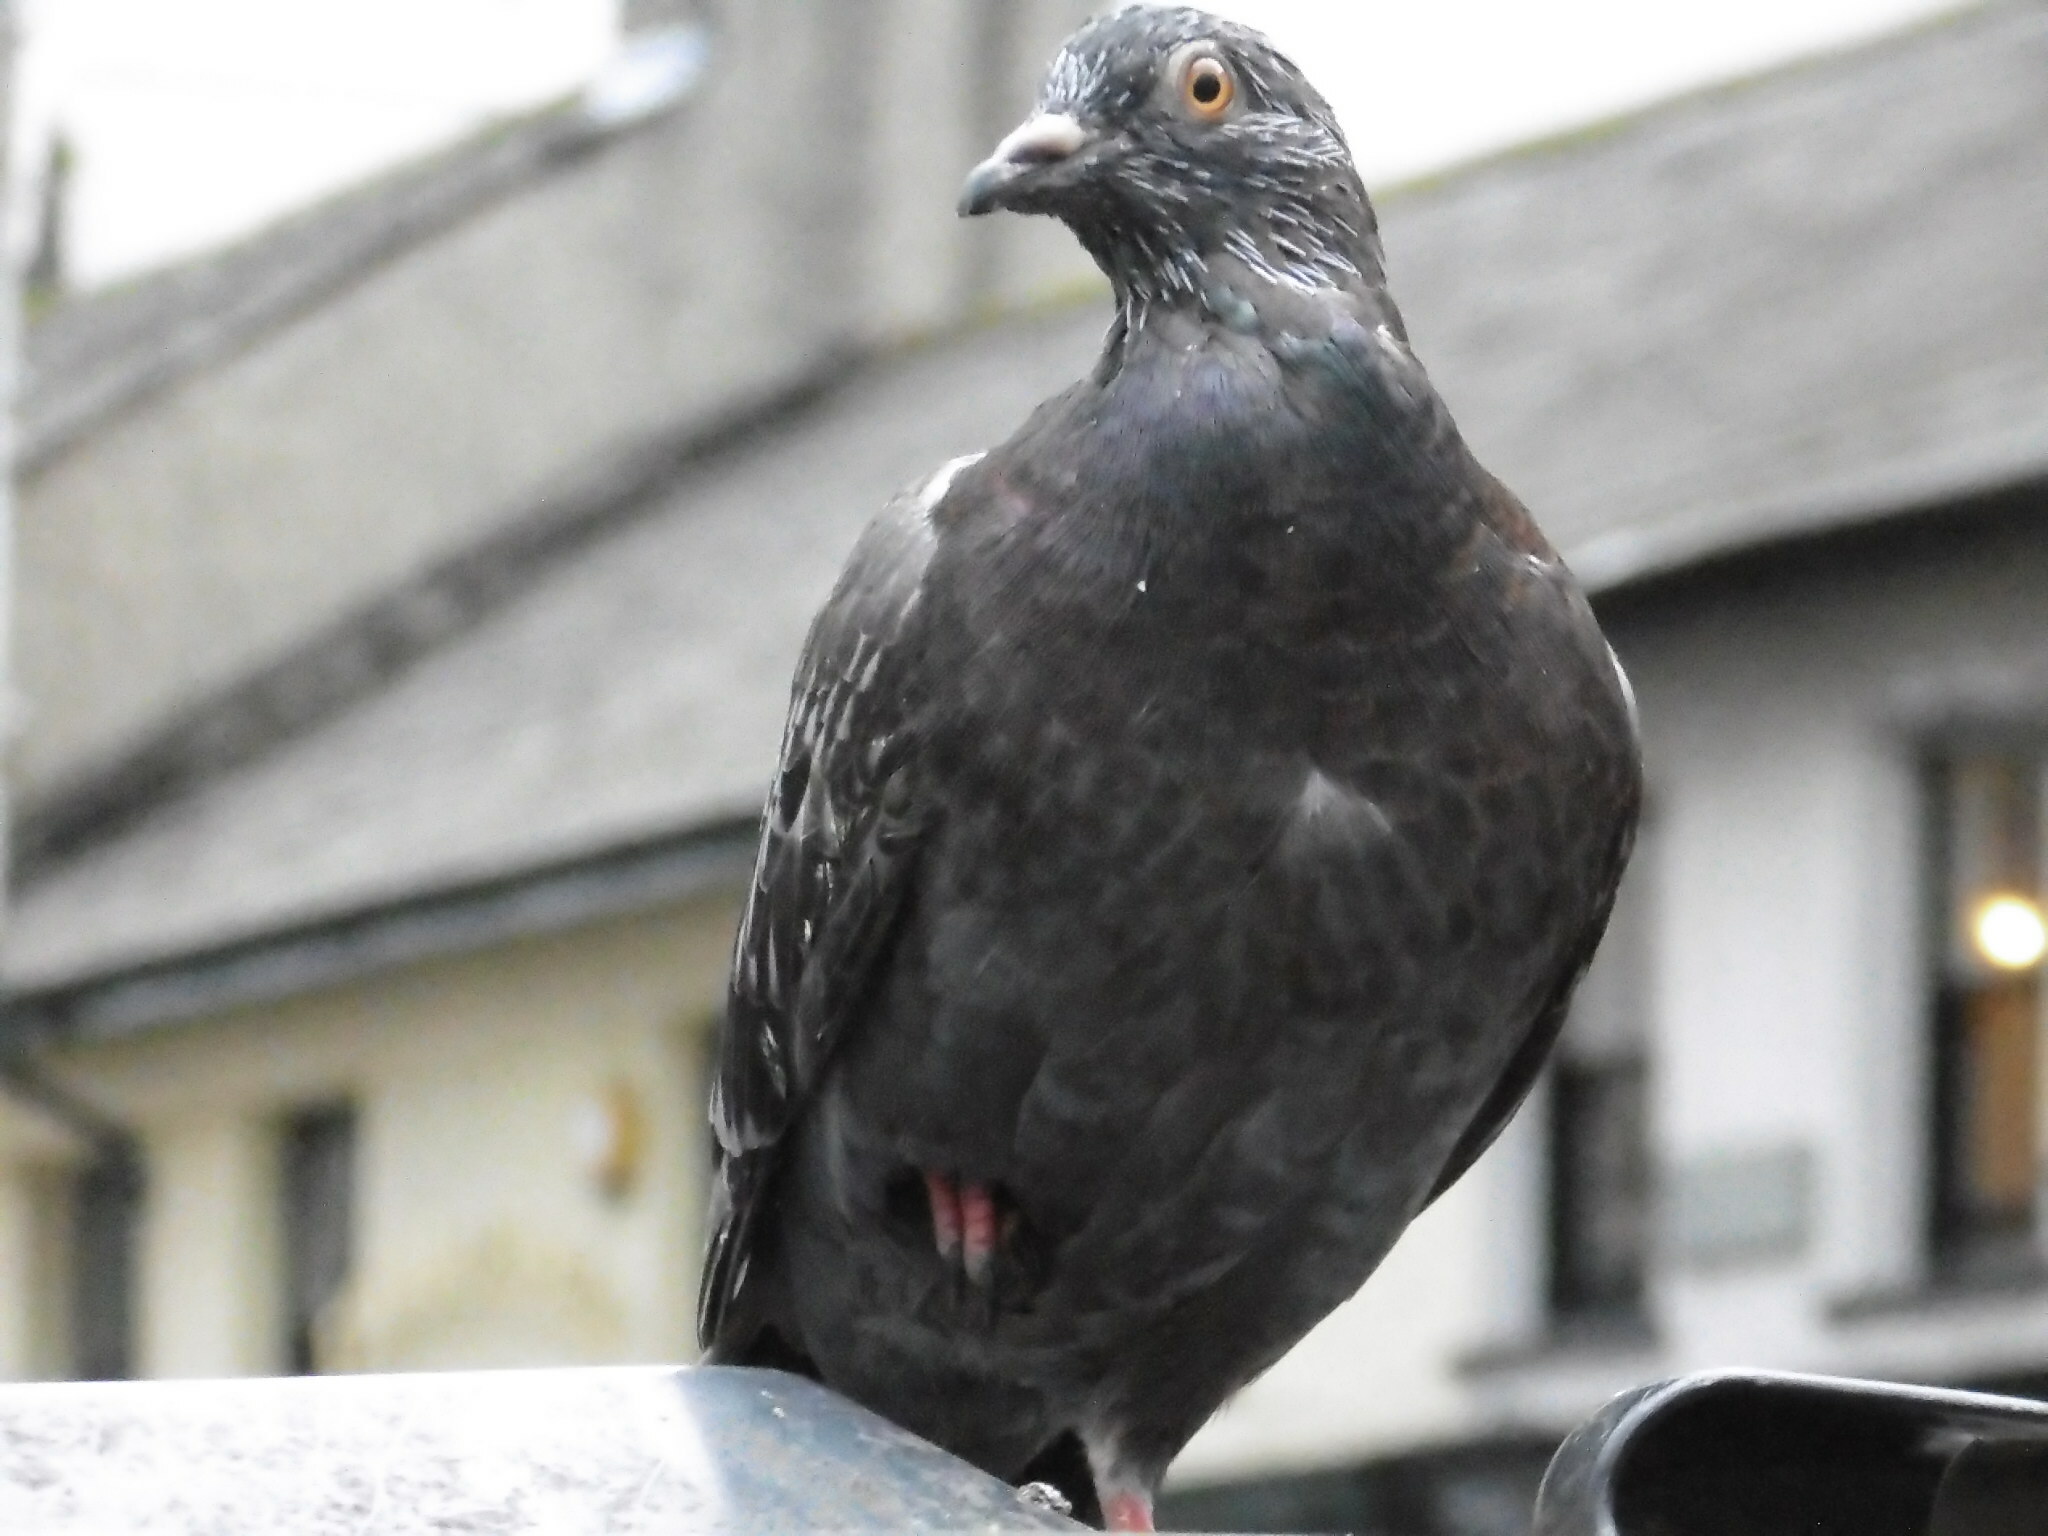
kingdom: Animalia
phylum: Chordata
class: Aves
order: Columbiformes
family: Columbidae
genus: Columba
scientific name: Columba livia
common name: Rock pigeon
